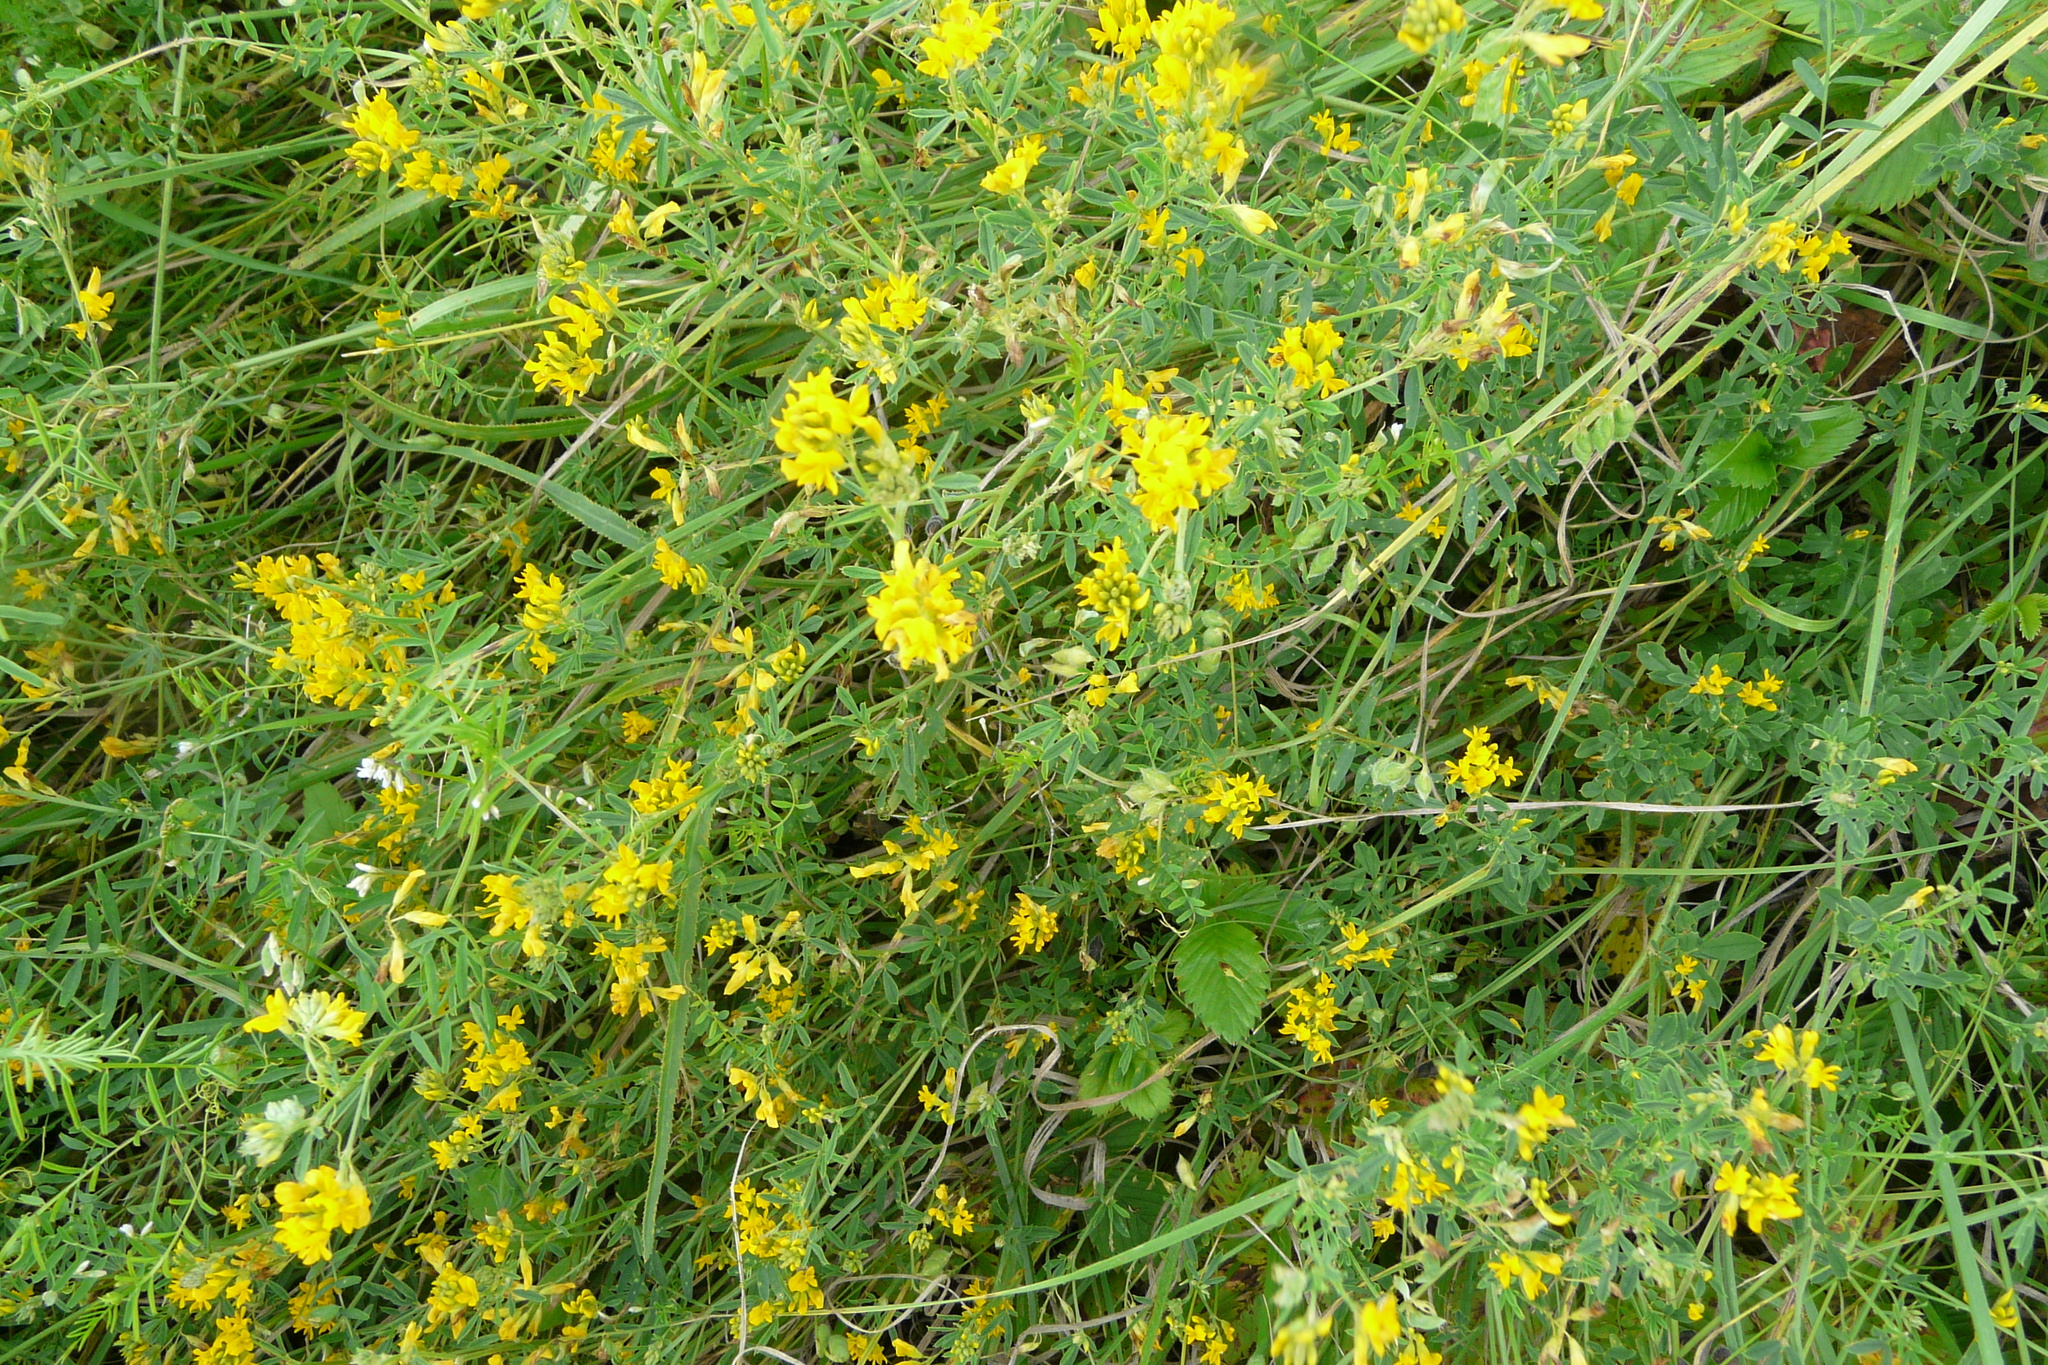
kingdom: Plantae
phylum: Tracheophyta
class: Magnoliopsida
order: Fabales
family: Fabaceae
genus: Medicago
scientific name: Medicago falcata
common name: Sickle medick
